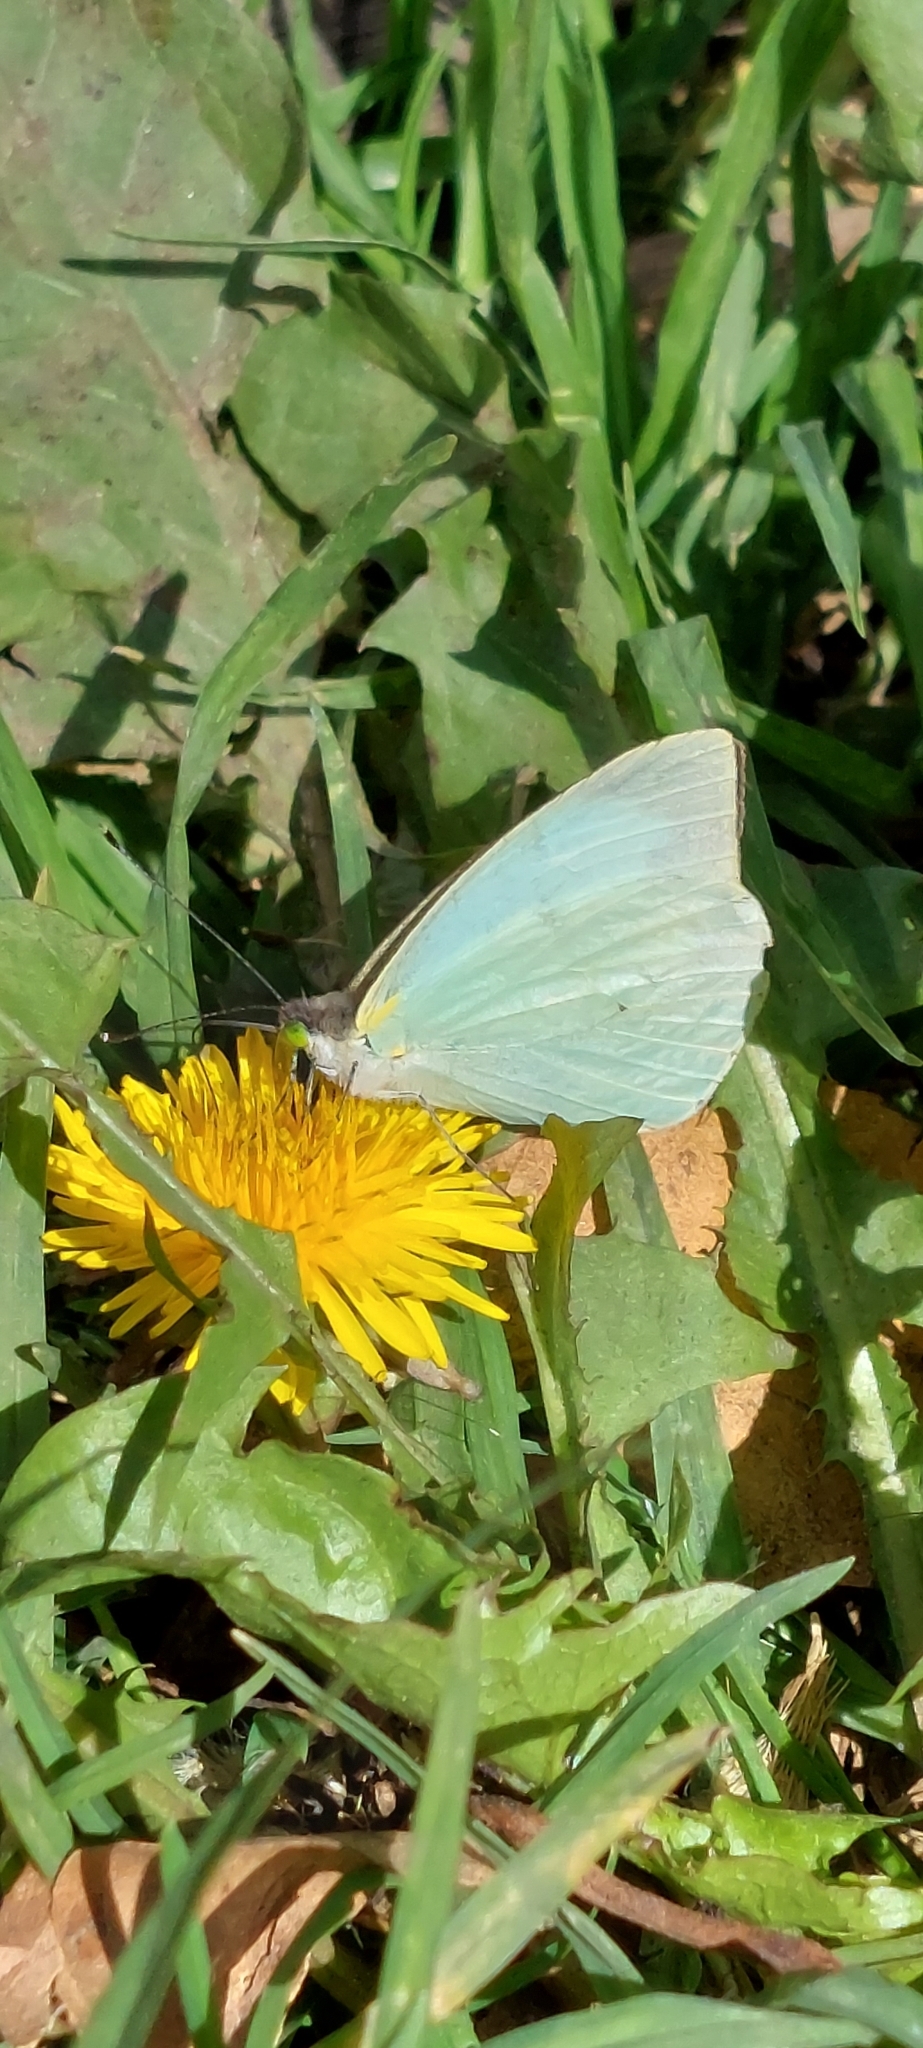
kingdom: Animalia
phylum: Arthropoda
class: Insecta
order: Lepidoptera
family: Pieridae
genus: Leptophobia
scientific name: Leptophobia aripa
